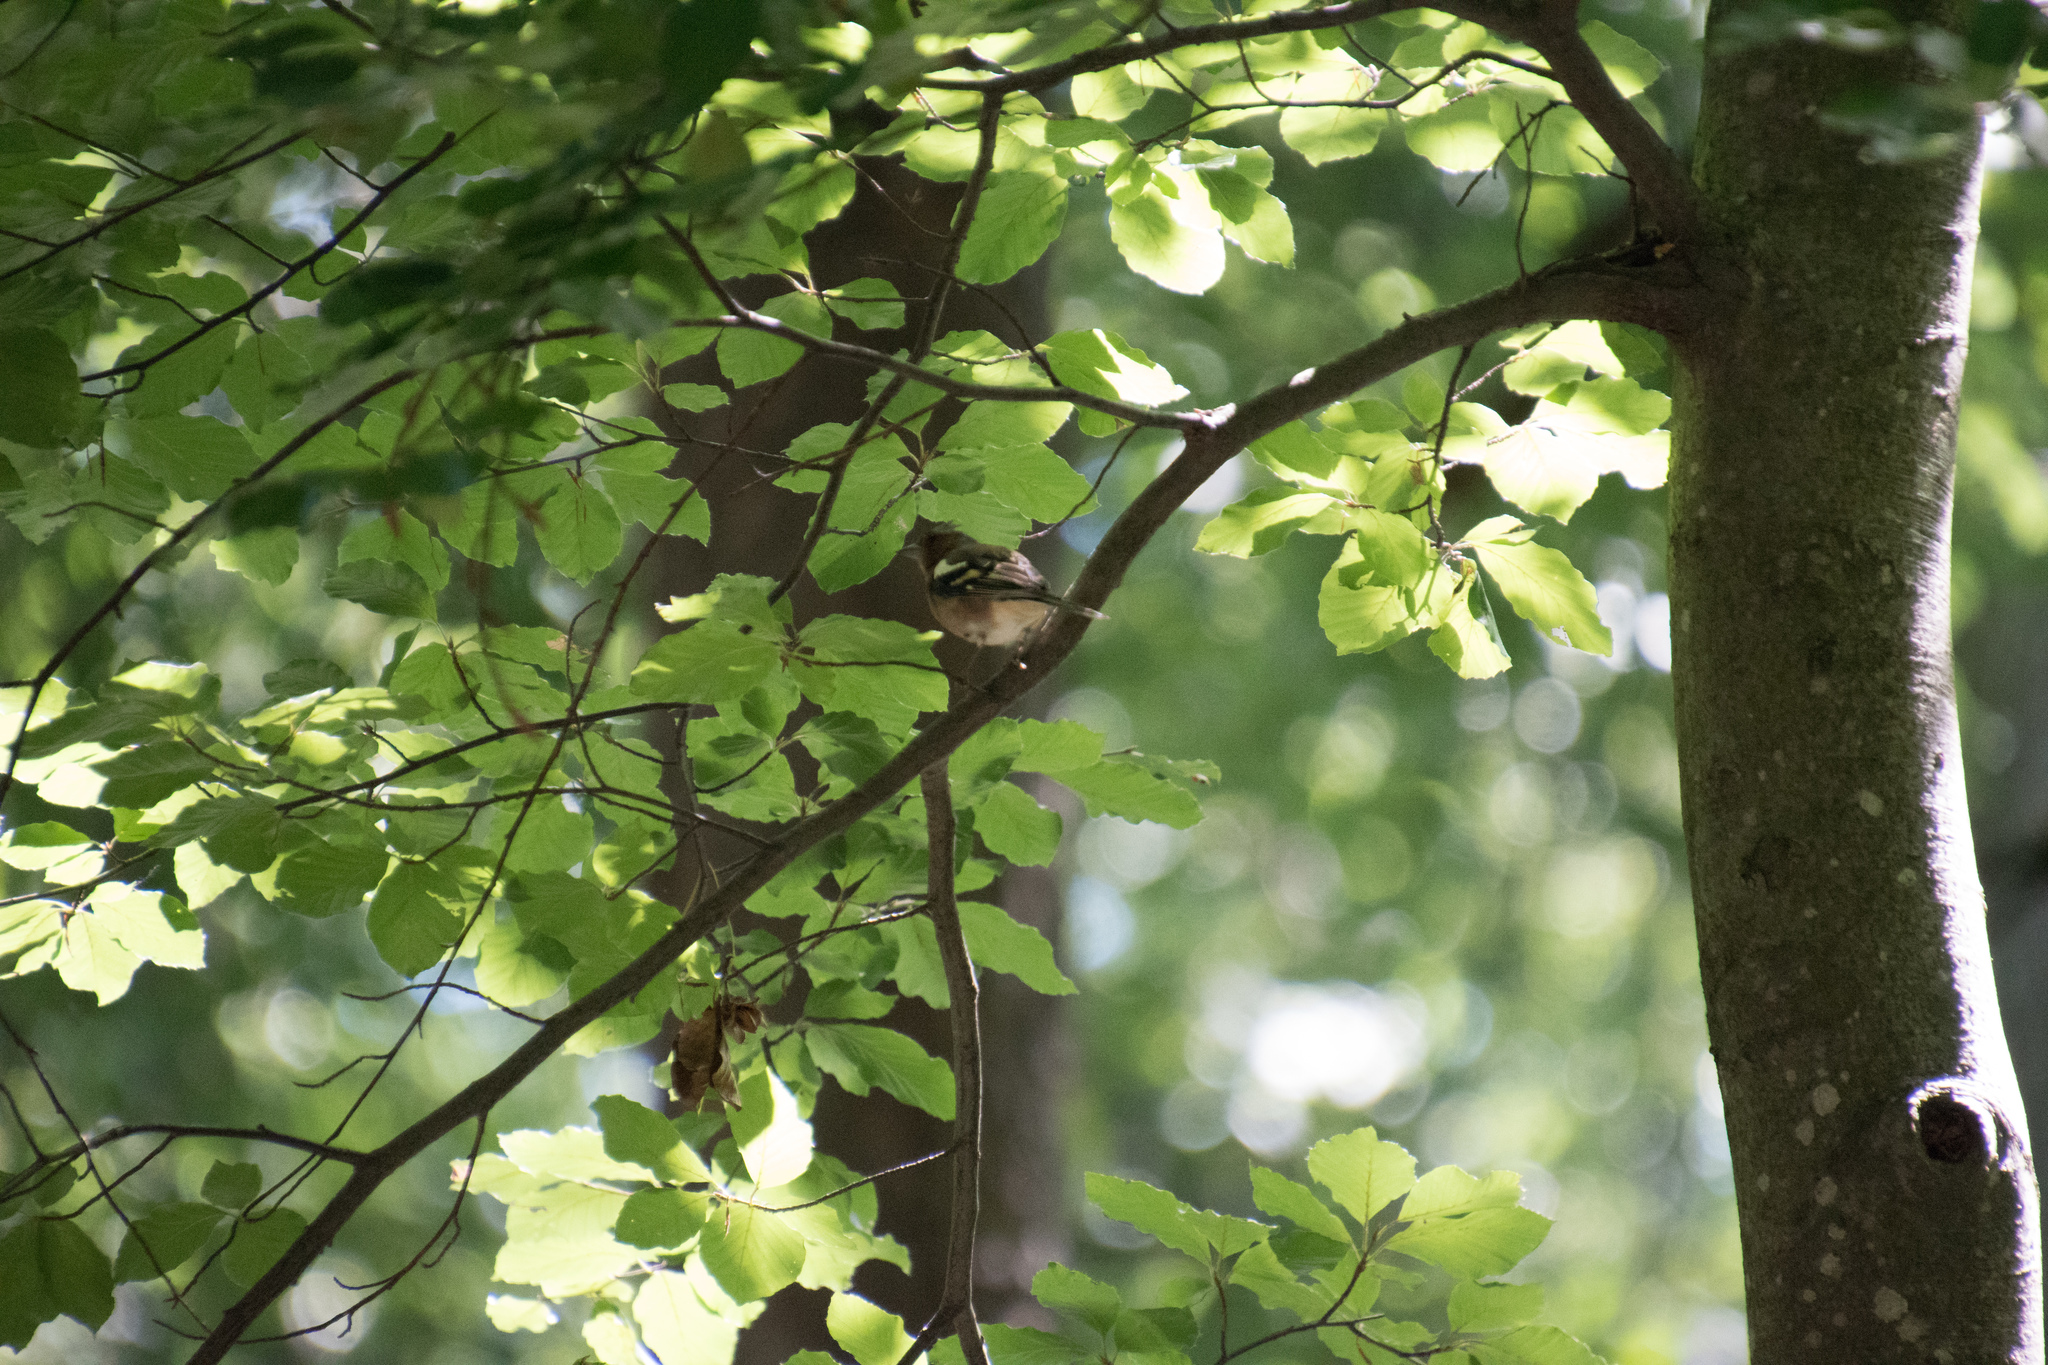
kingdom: Animalia
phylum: Chordata
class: Aves
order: Passeriformes
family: Fringillidae
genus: Fringilla
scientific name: Fringilla coelebs
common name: Common chaffinch
